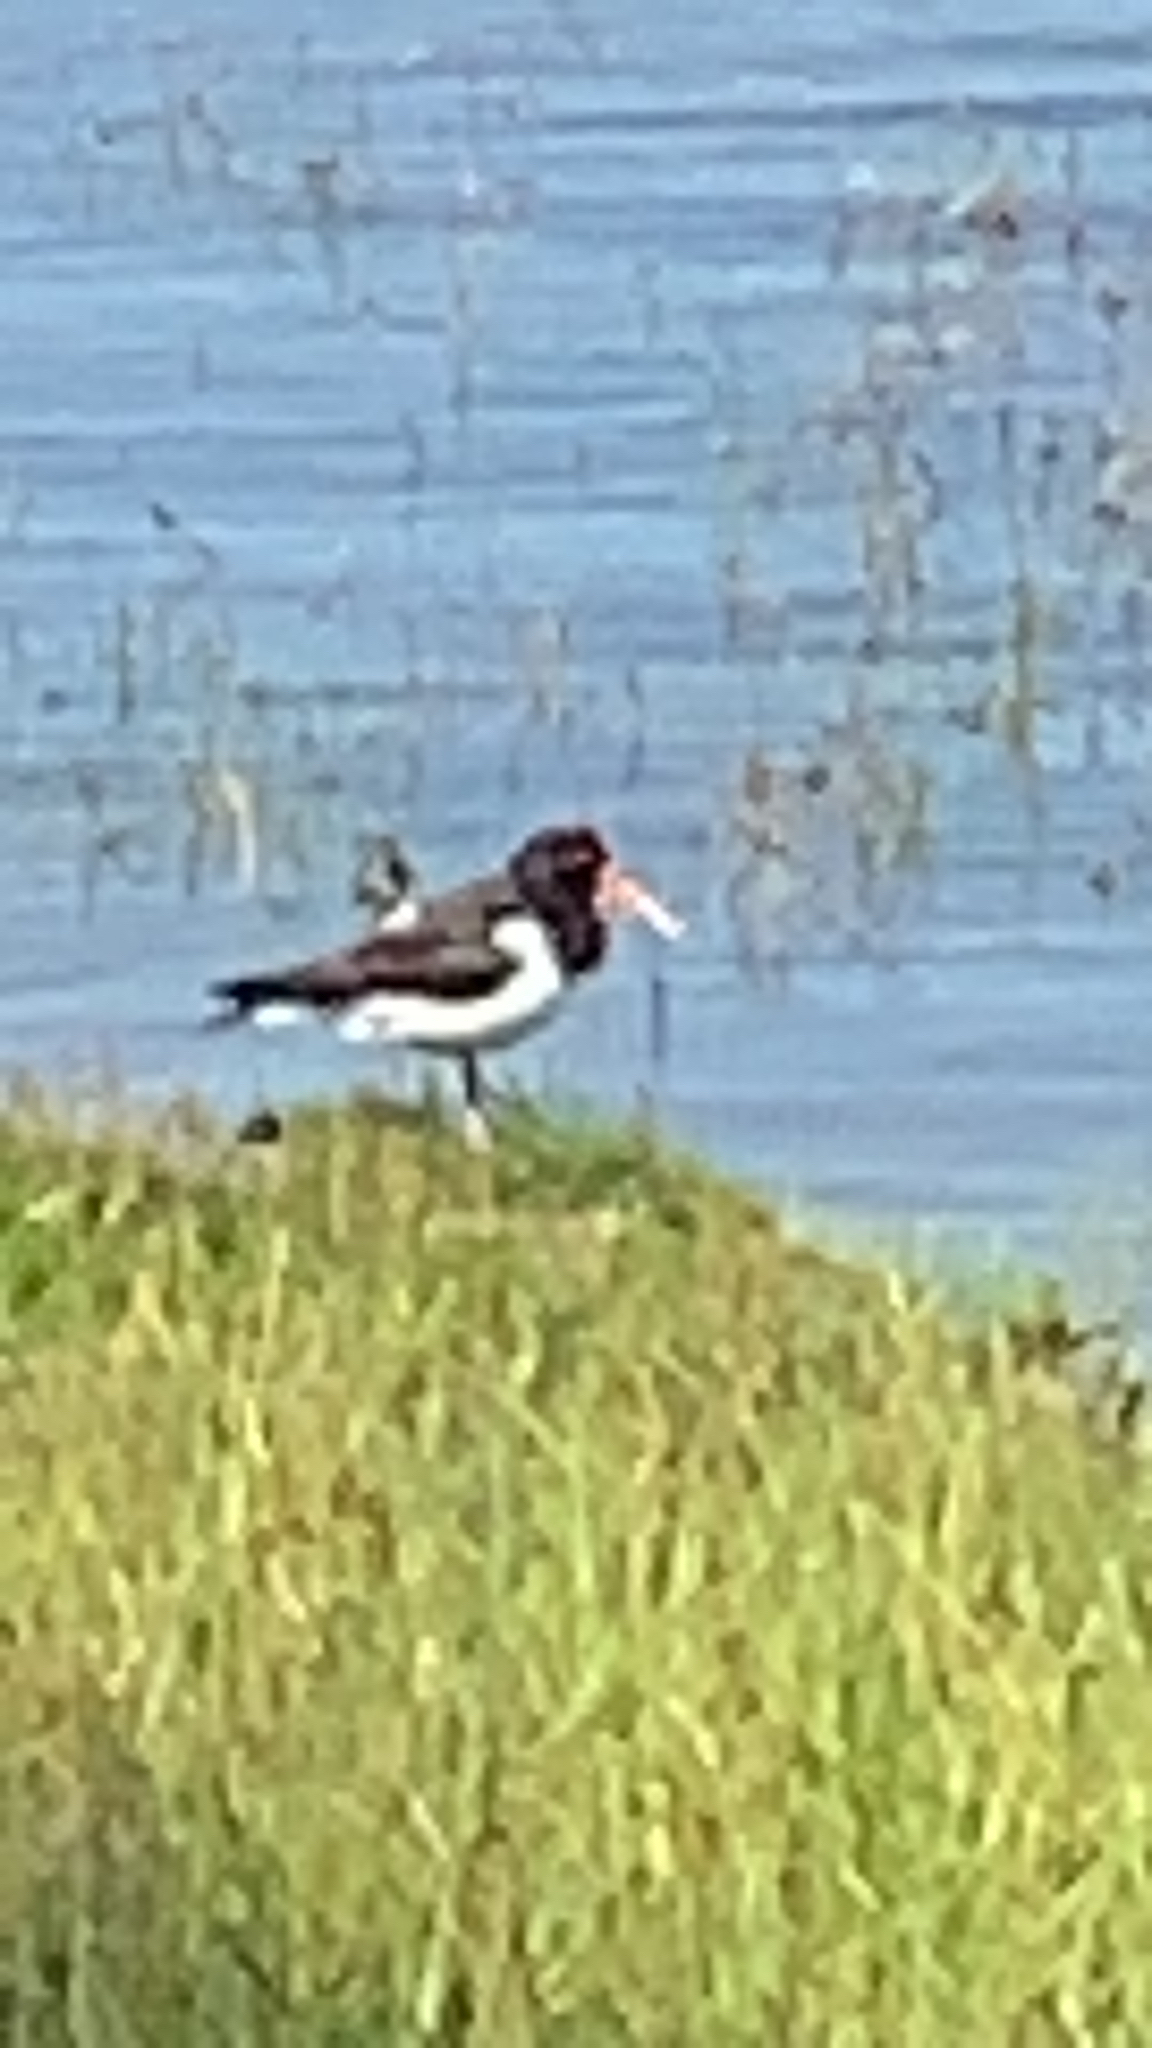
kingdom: Animalia
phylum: Chordata
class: Aves
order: Charadriiformes
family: Haematopodidae
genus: Haematopus
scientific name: Haematopus ostralegus
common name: Eurasian oystercatcher
